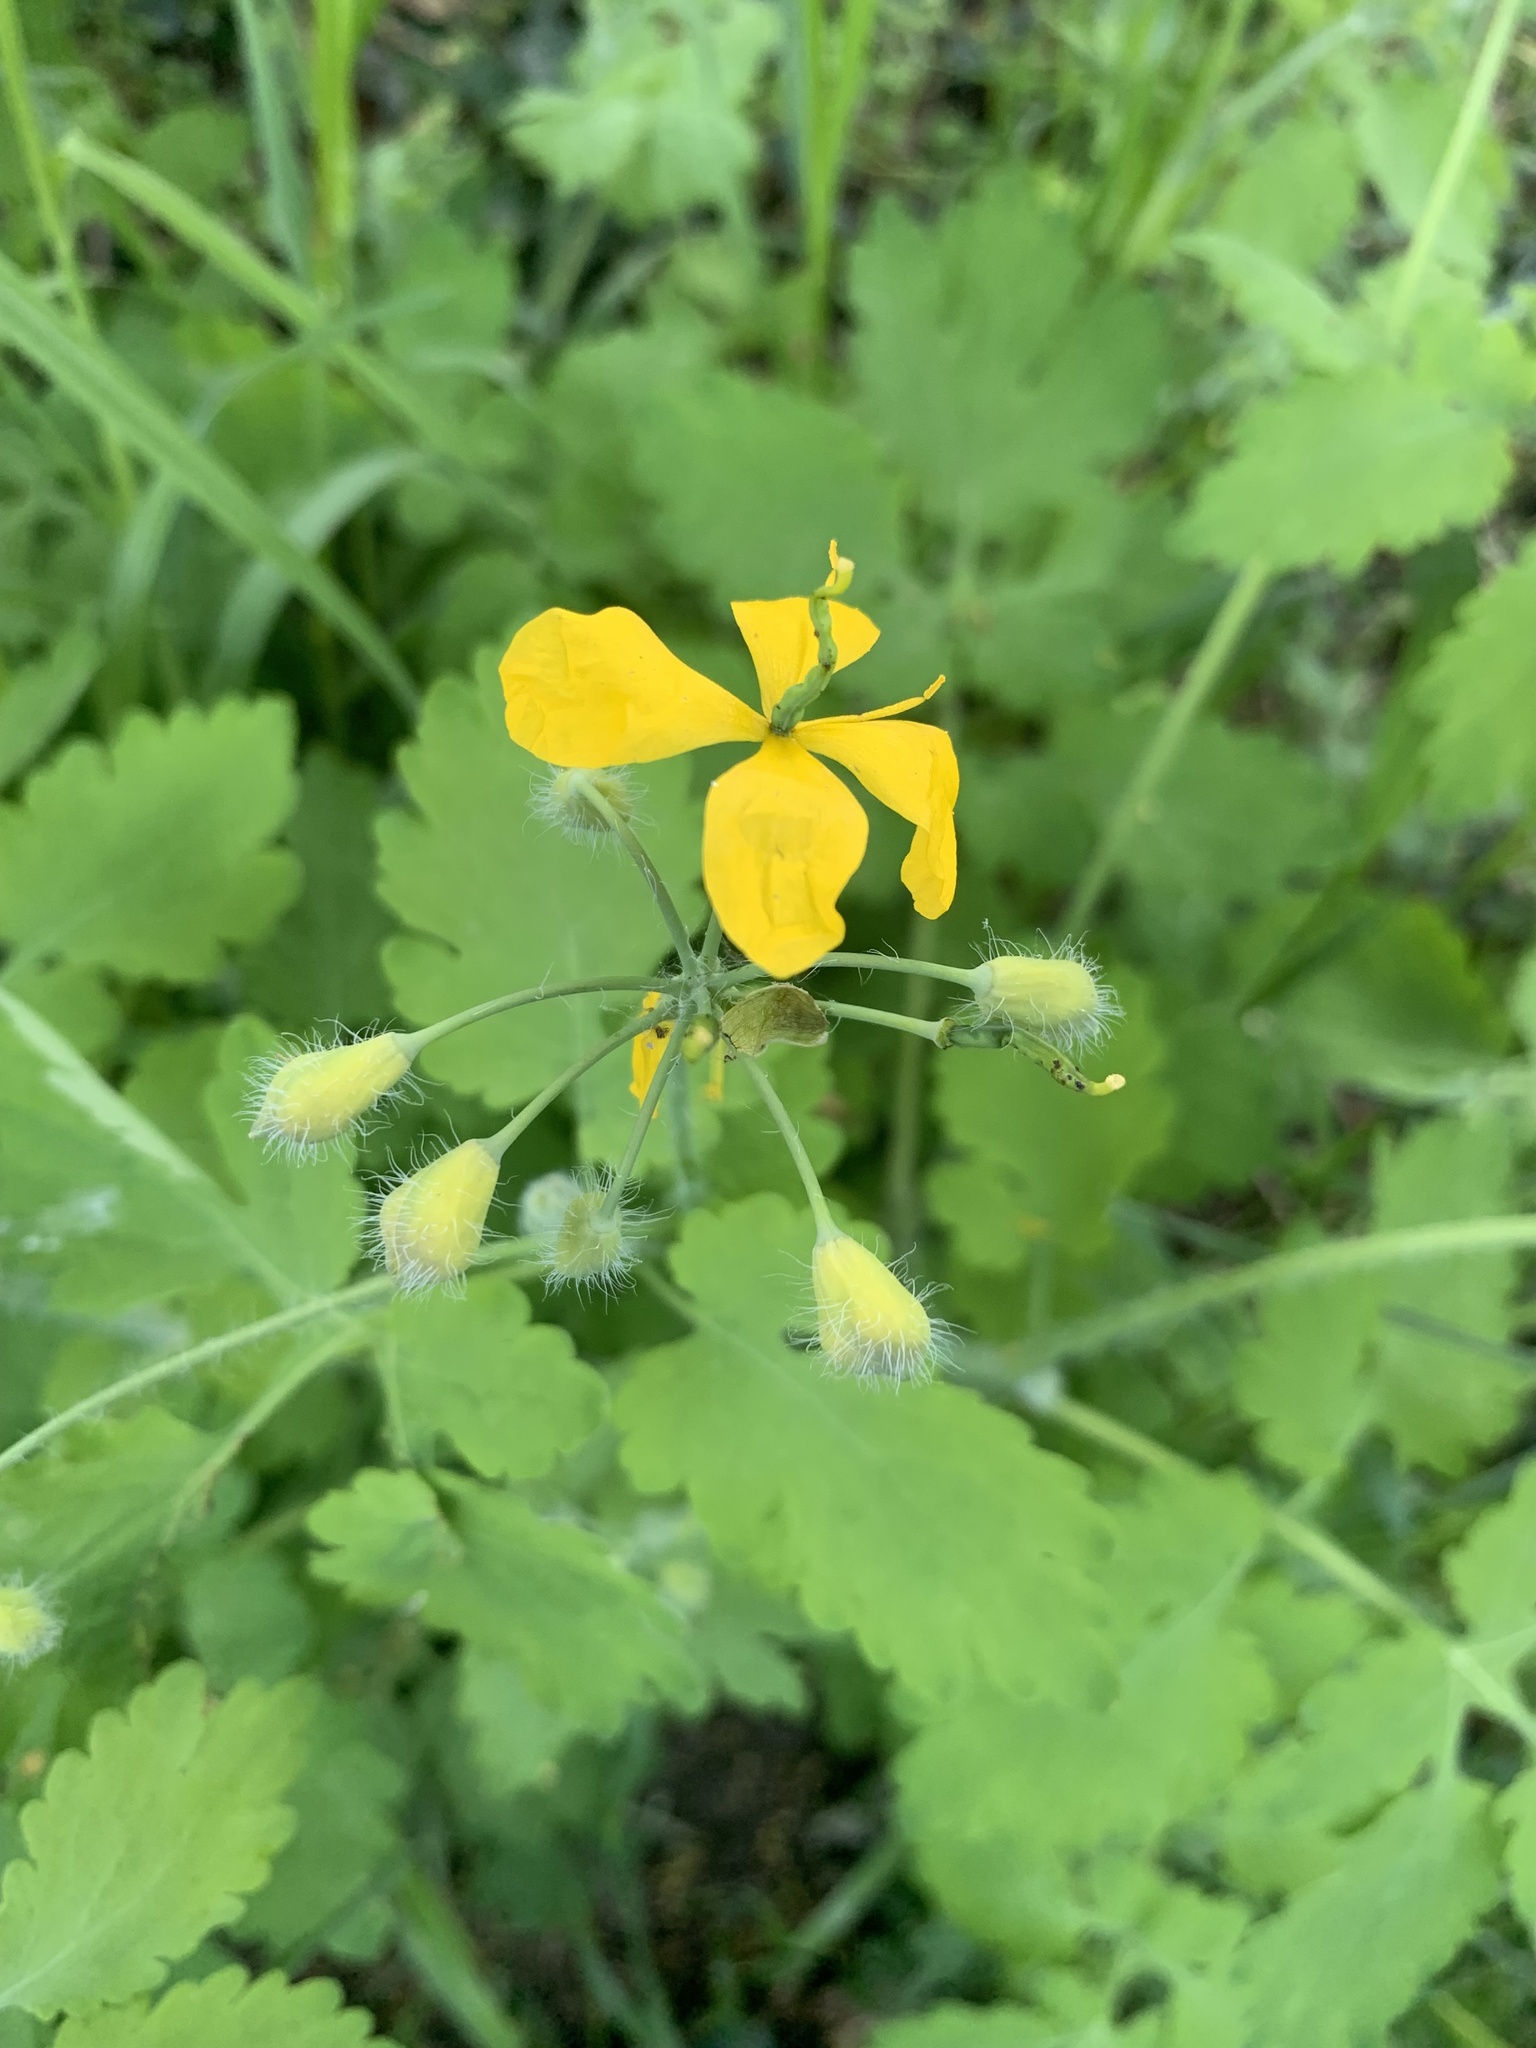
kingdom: Plantae
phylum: Tracheophyta
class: Magnoliopsida
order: Ranunculales
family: Papaveraceae
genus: Chelidonium
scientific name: Chelidonium majus
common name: Greater celandine
